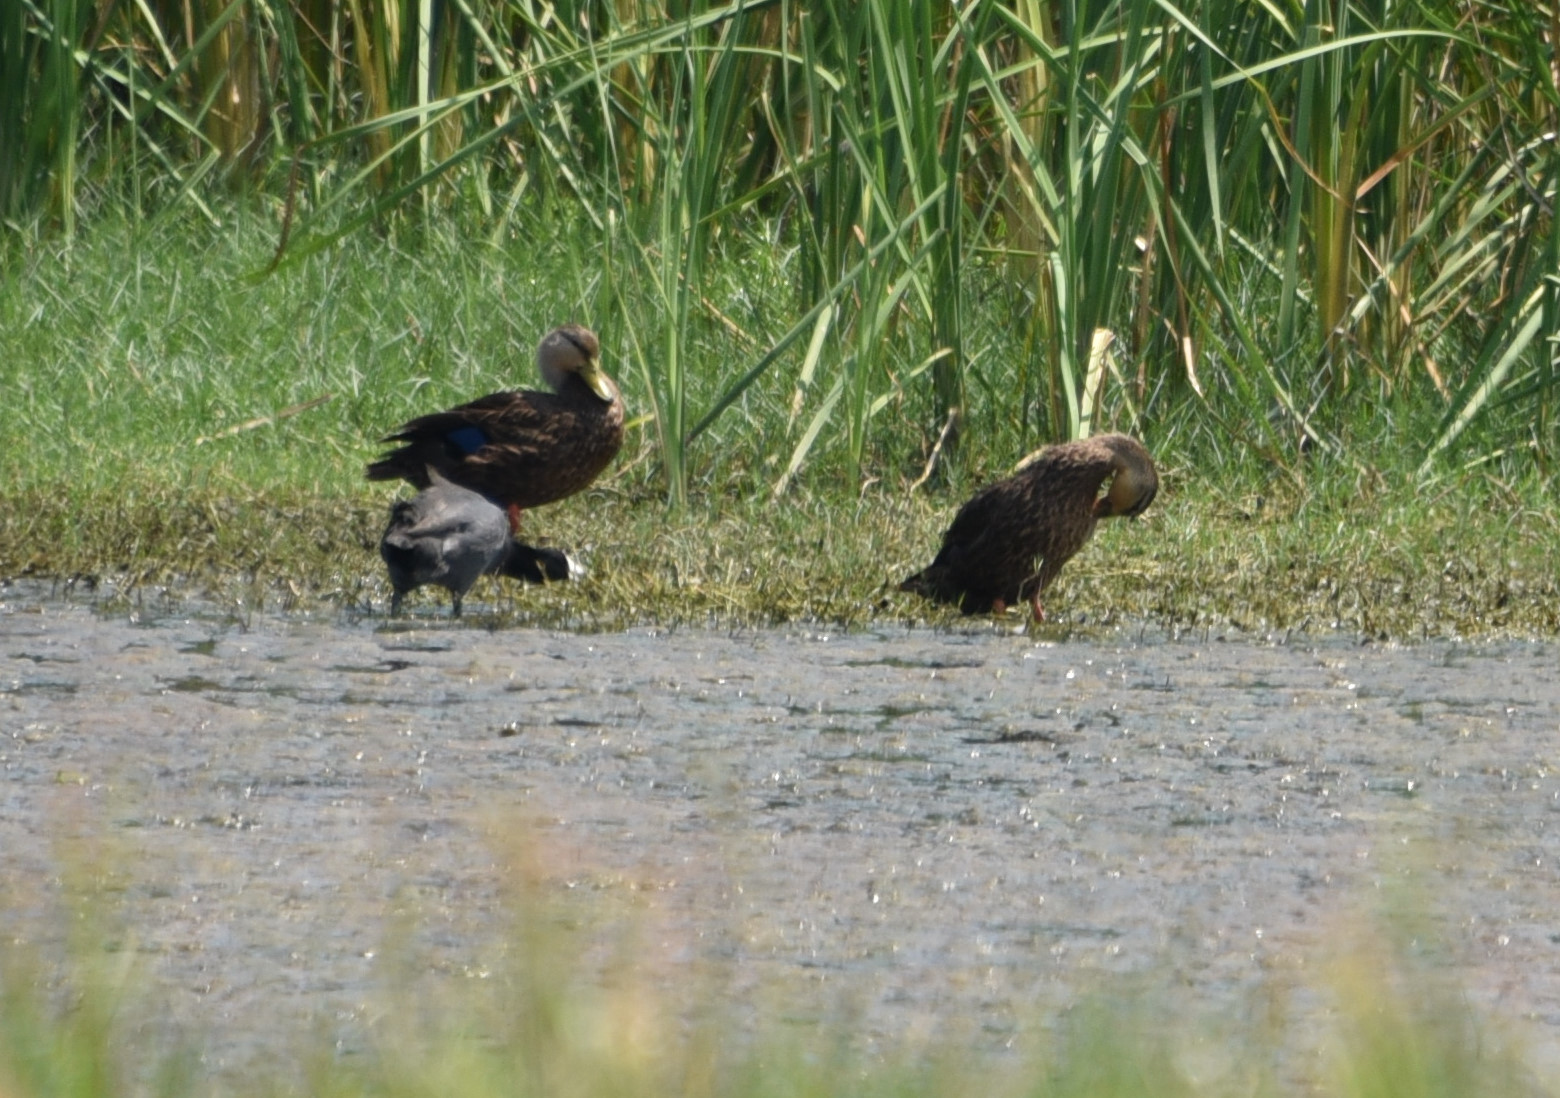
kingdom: Animalia
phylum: Chordata
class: Aves
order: Anseriformes
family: Anatidae
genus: Anas
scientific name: Anas fulvigula
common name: Mottled duck
